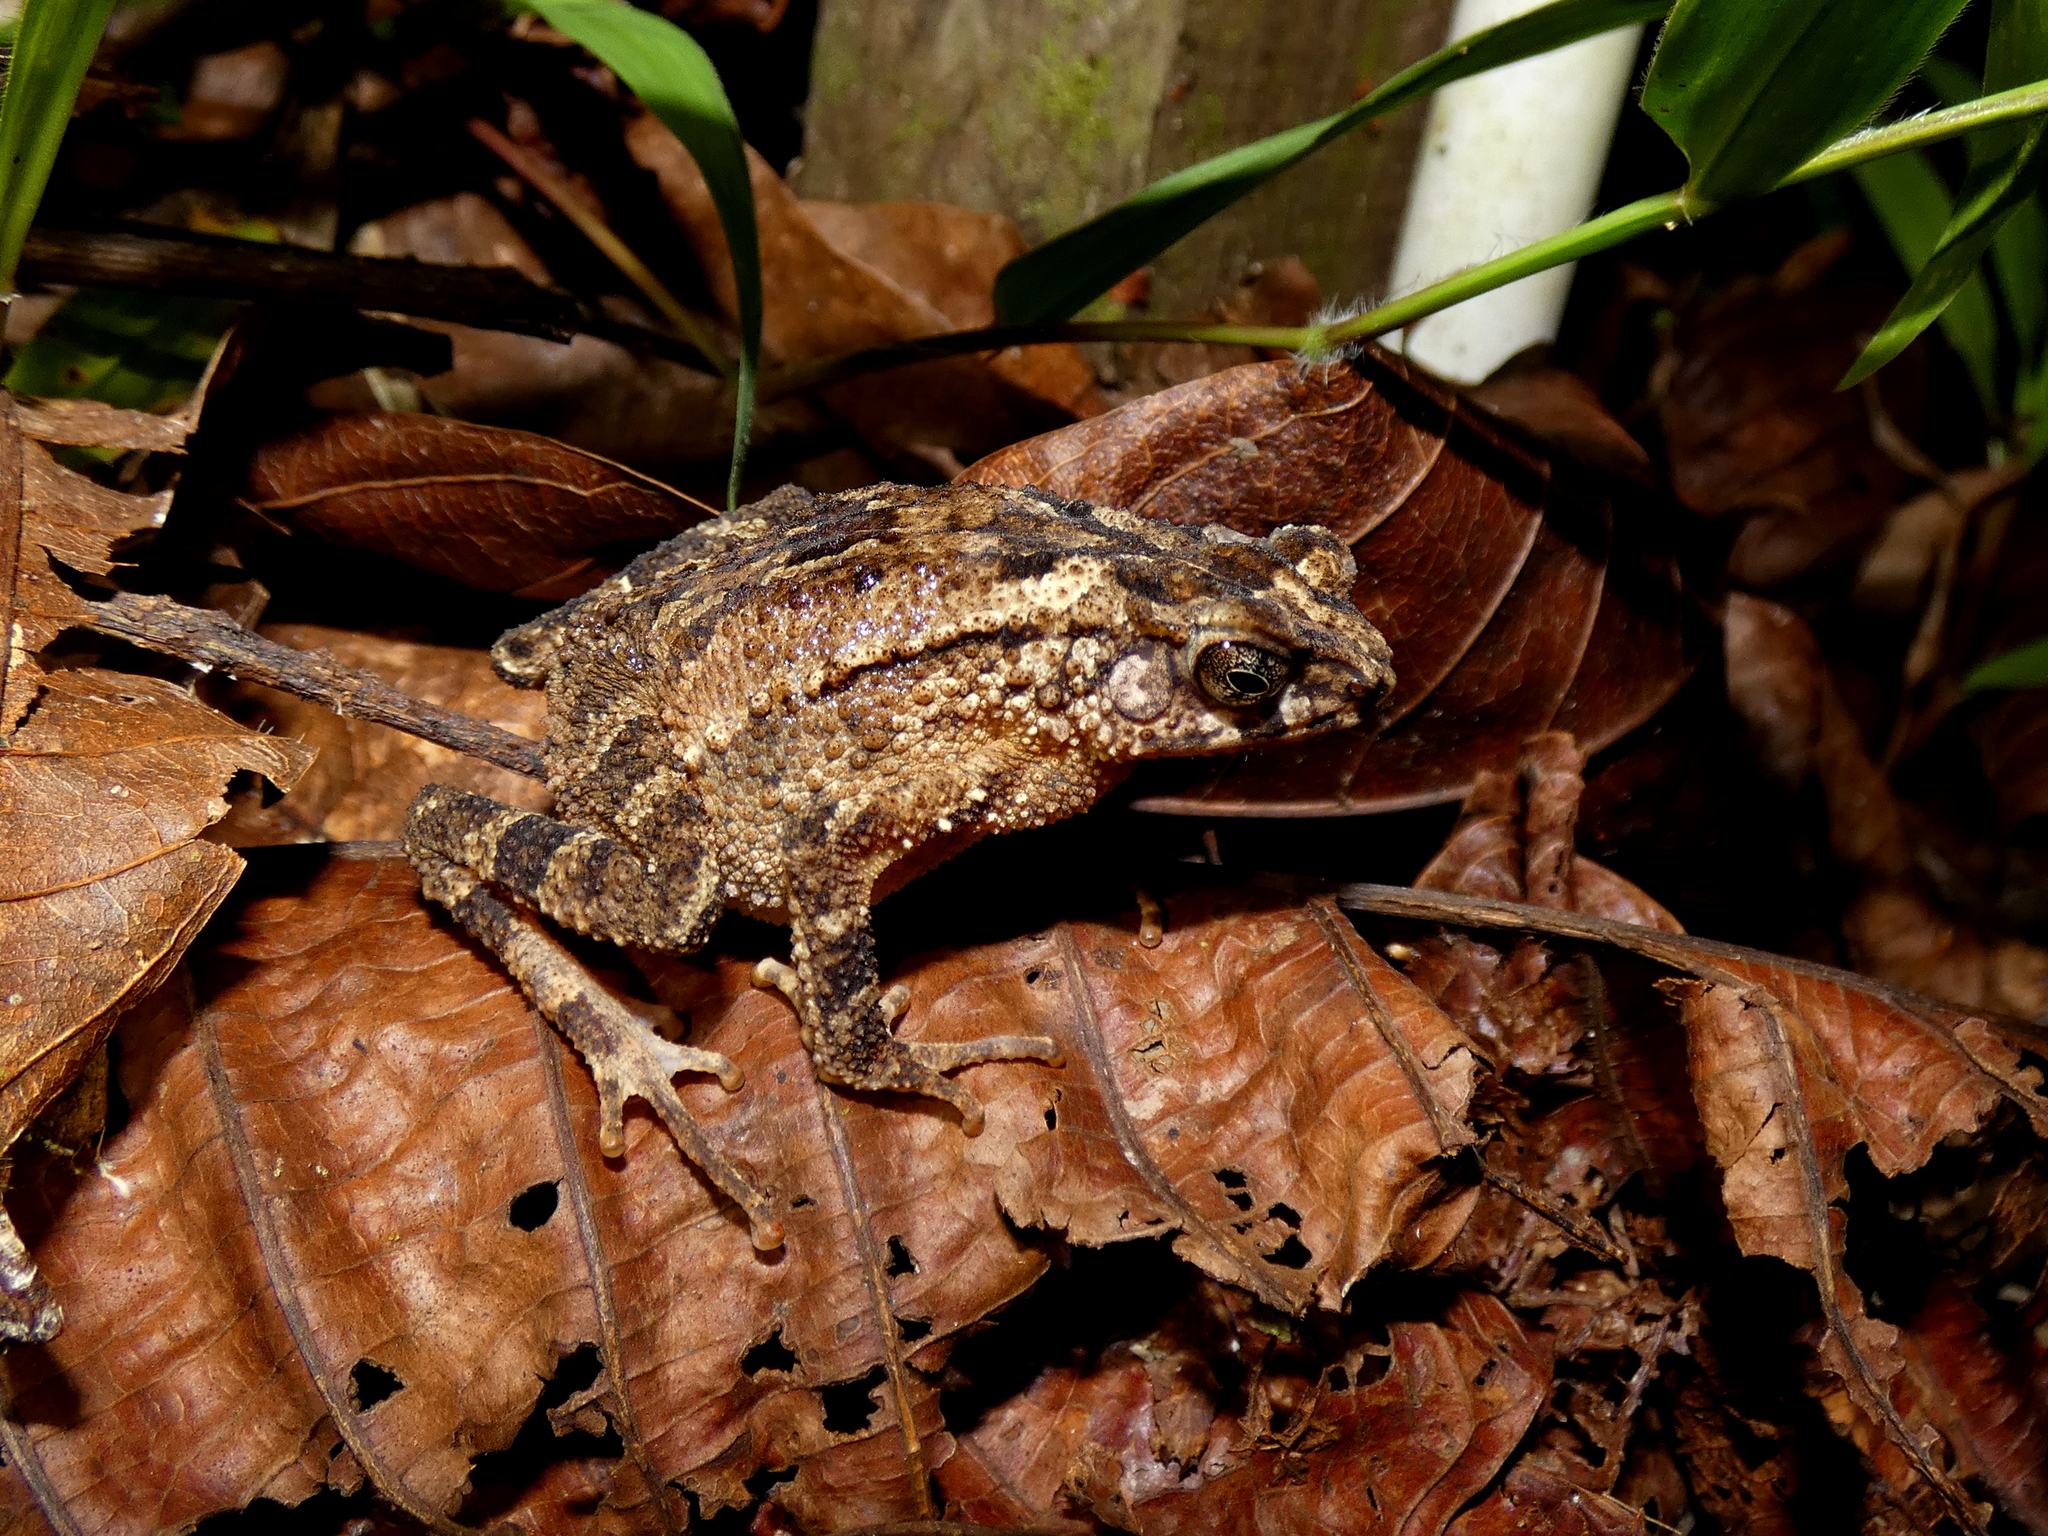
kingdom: Animalia
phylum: Chordata
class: Amphibia
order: Anura
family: Bufonidae
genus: Ingerophrynus
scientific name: Ingerophrynus divergens
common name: Crested toad
